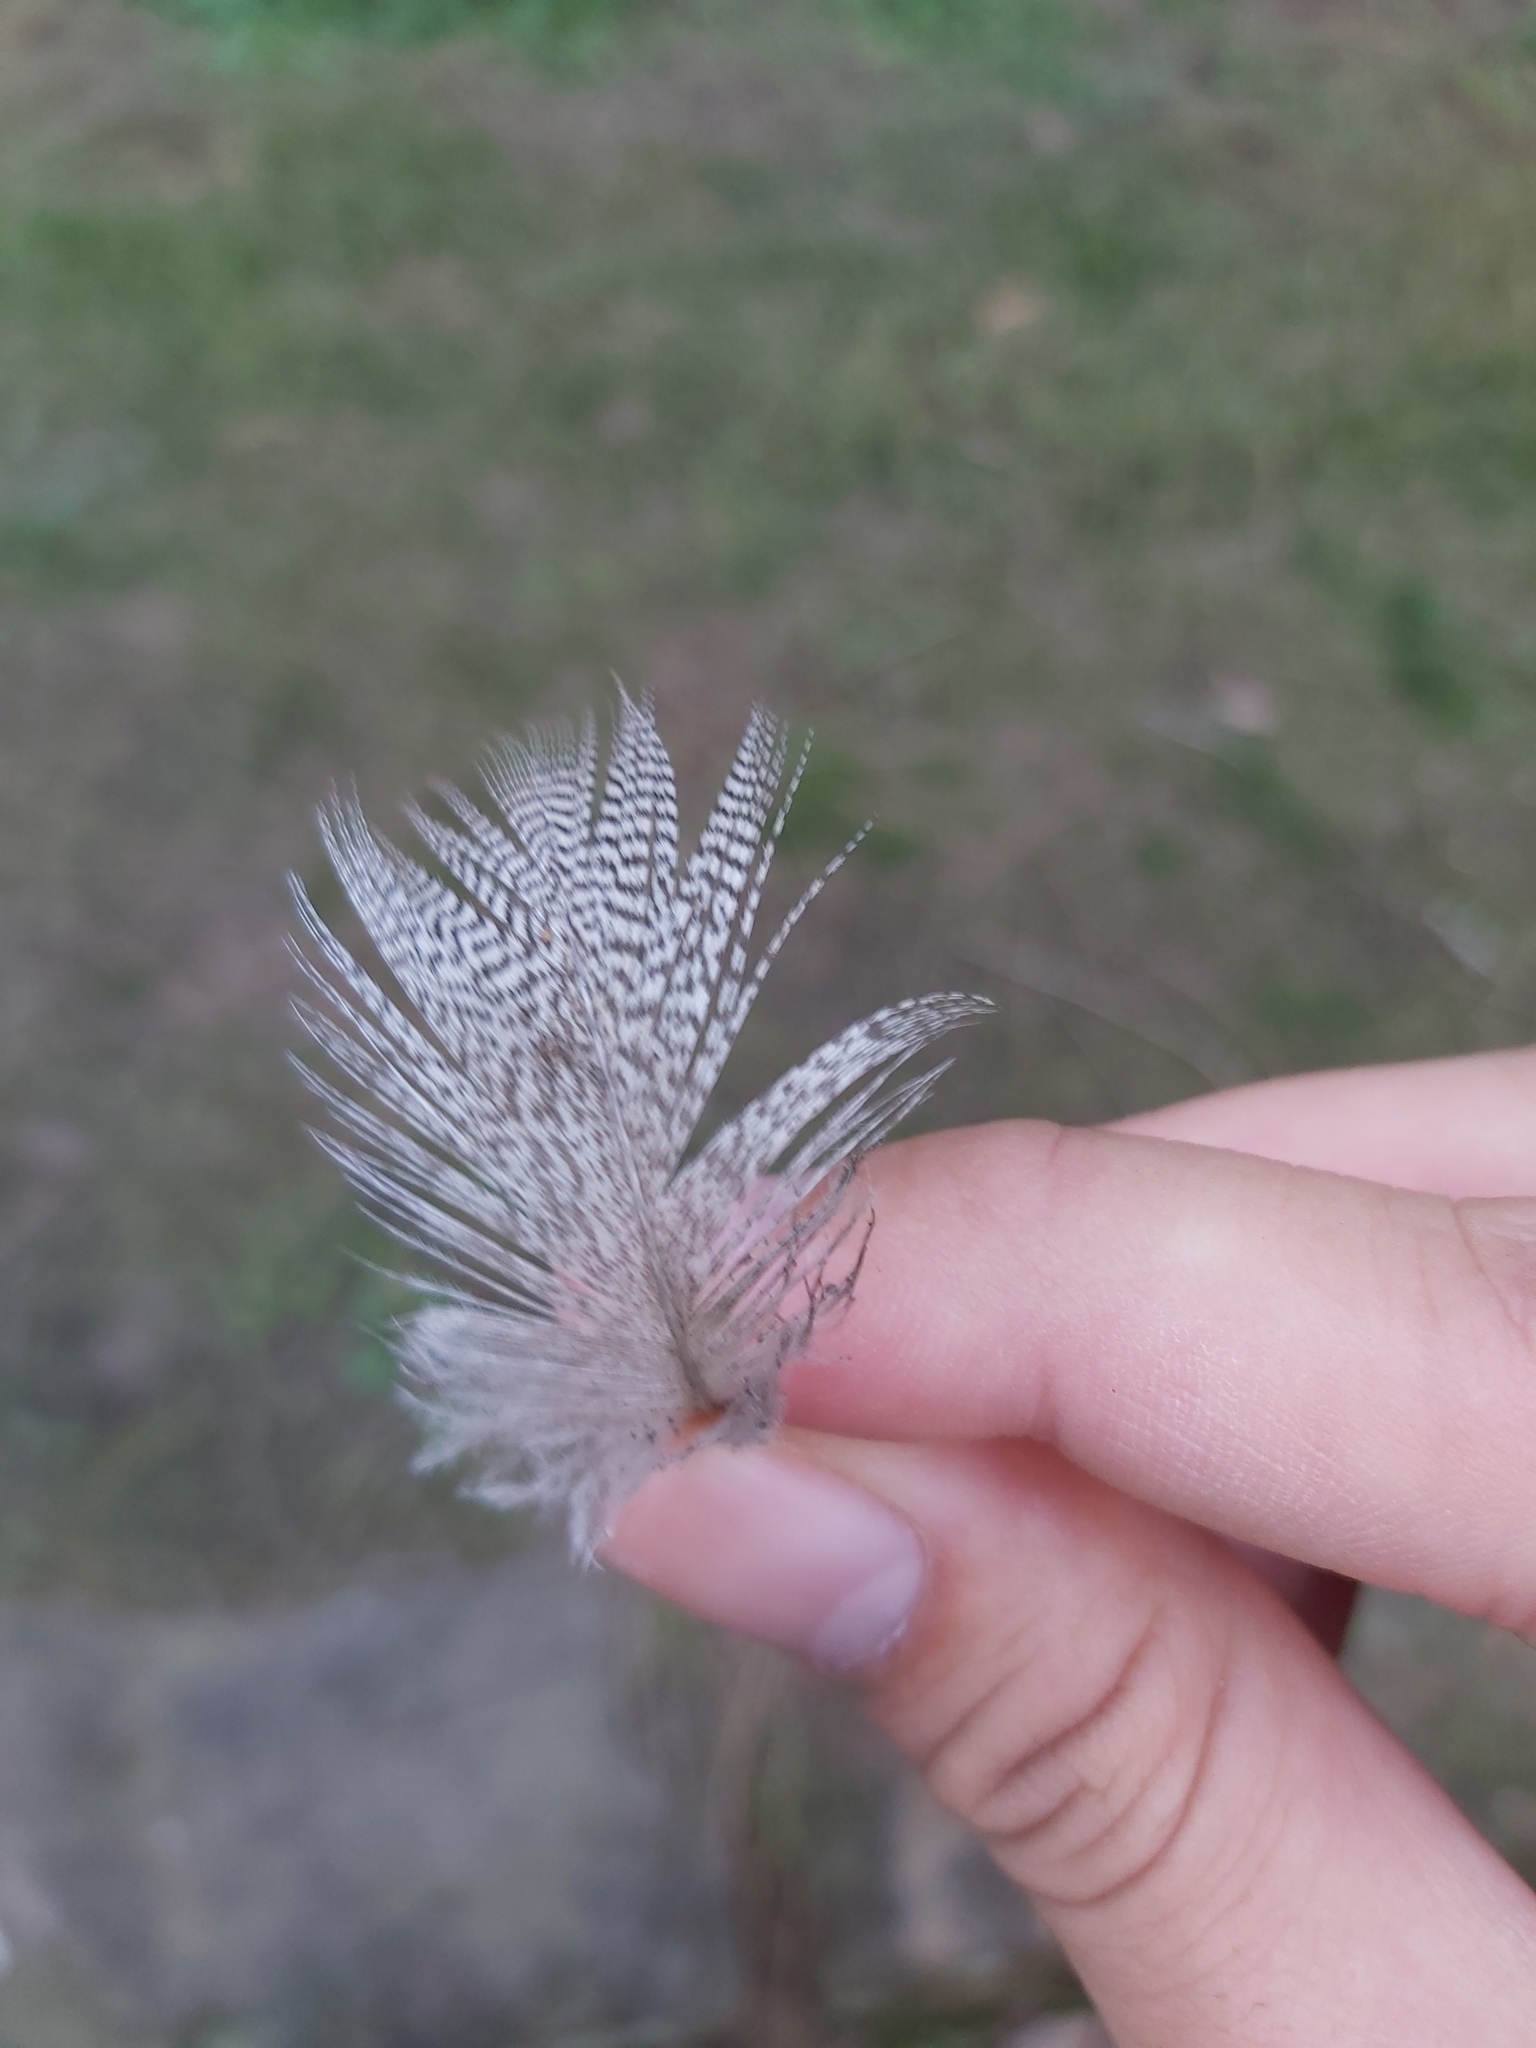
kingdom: Animalia
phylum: Chordata
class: Aves
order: Anseriformes
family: Anatidae
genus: Chenonetta
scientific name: Chenonetta jubata
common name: Maned duck
